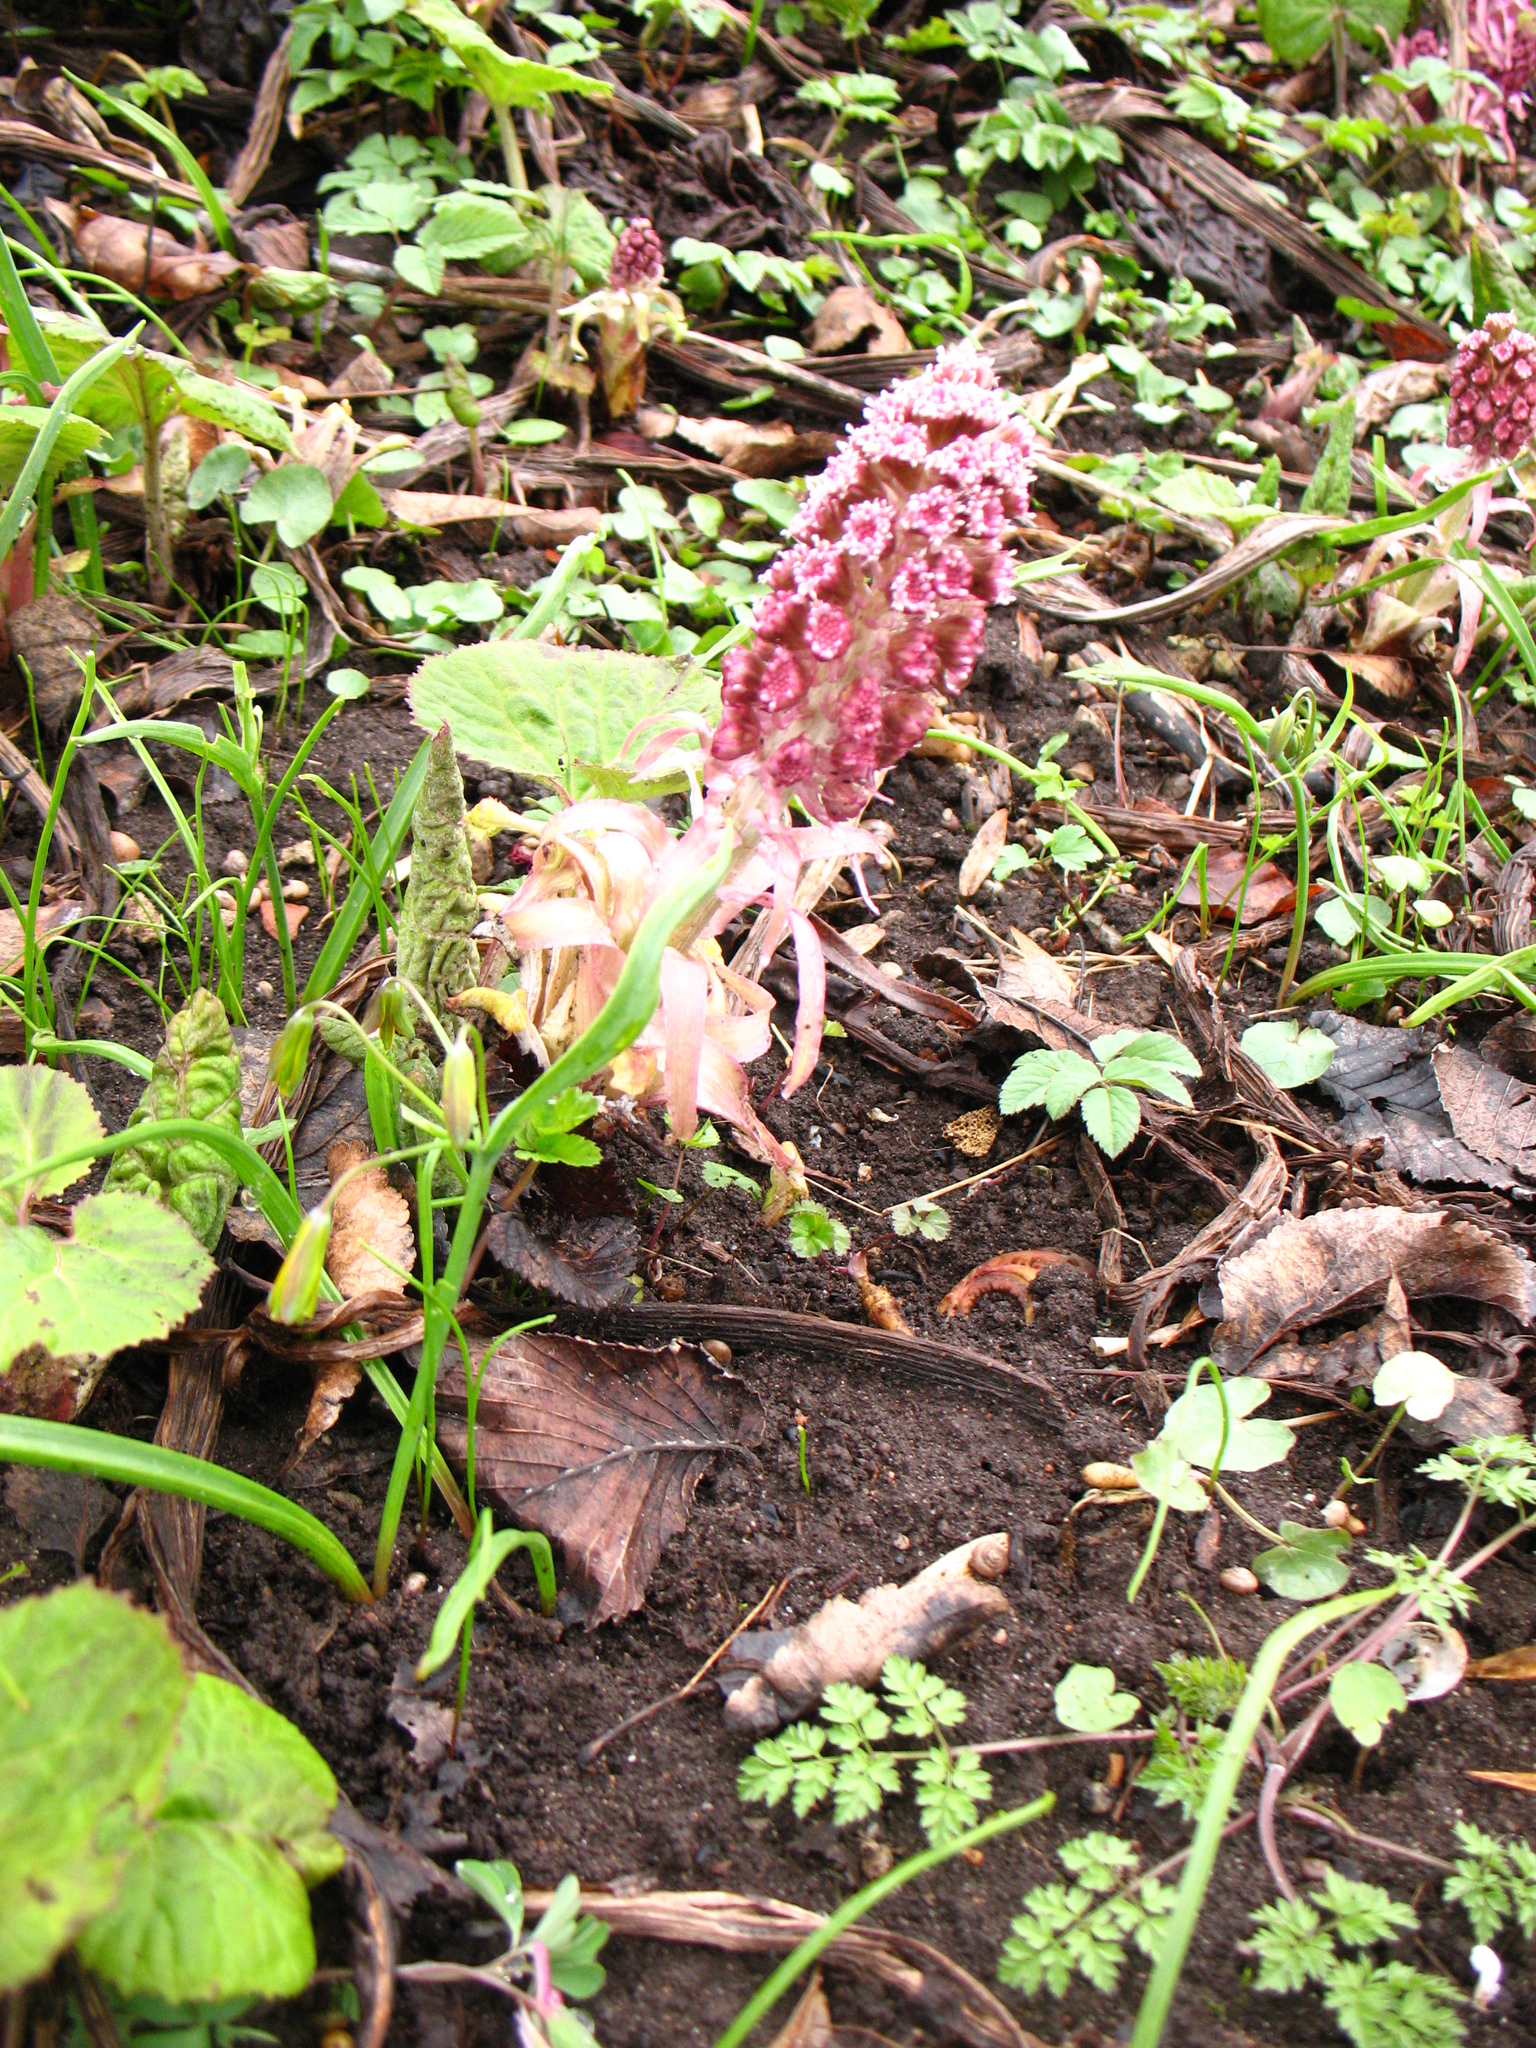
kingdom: Plantae
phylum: Tracheophyta
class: Magnoliopsida
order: Asterales
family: Asteraceae
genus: Petasites
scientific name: Petasites hybridus
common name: Butterbur
